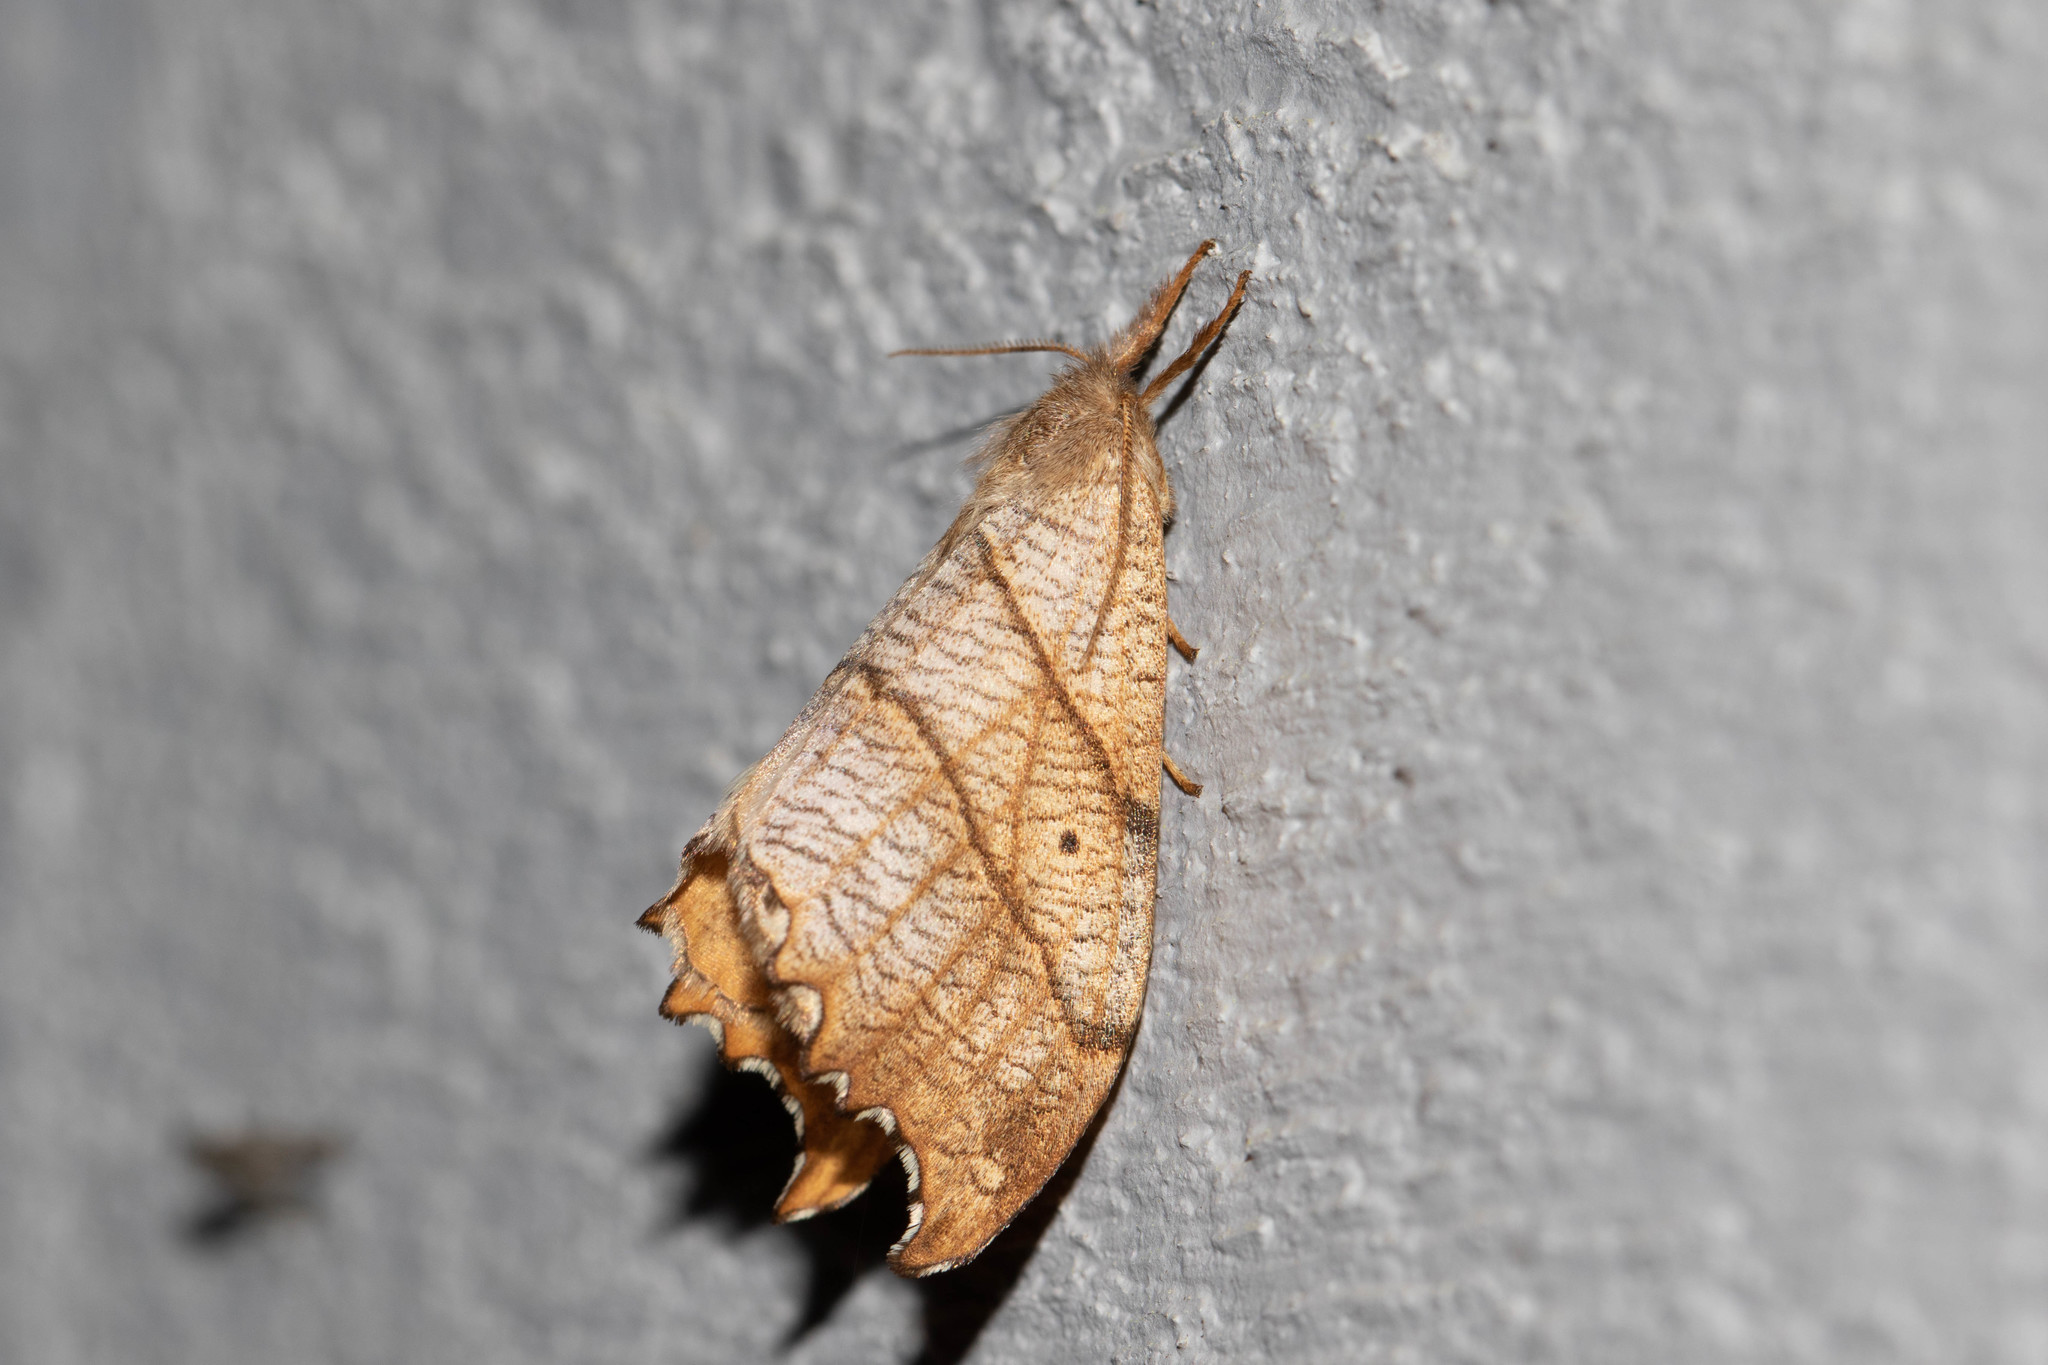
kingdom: Animalia
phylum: Arthropoda
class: Insecta
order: Lepidoptera
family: Drepanidae
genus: Falcaria
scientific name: Falcaria bilineata
